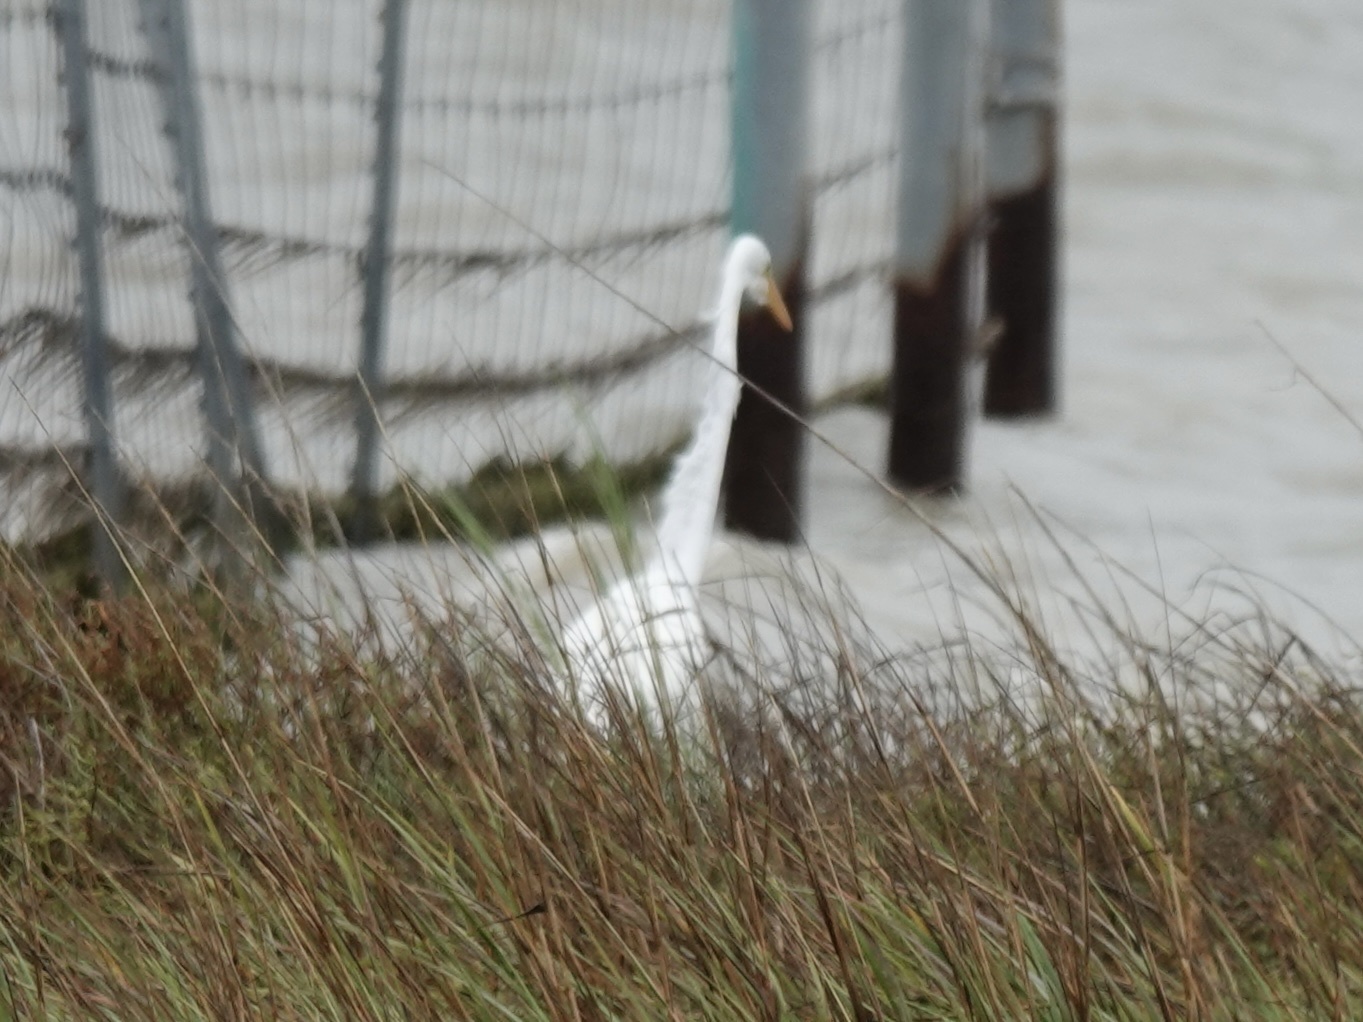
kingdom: Animalia
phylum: Chordata
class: Aves
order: Pelecaniformes
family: Ardeidae
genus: Ardea
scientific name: Ardea alba
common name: Great egret
